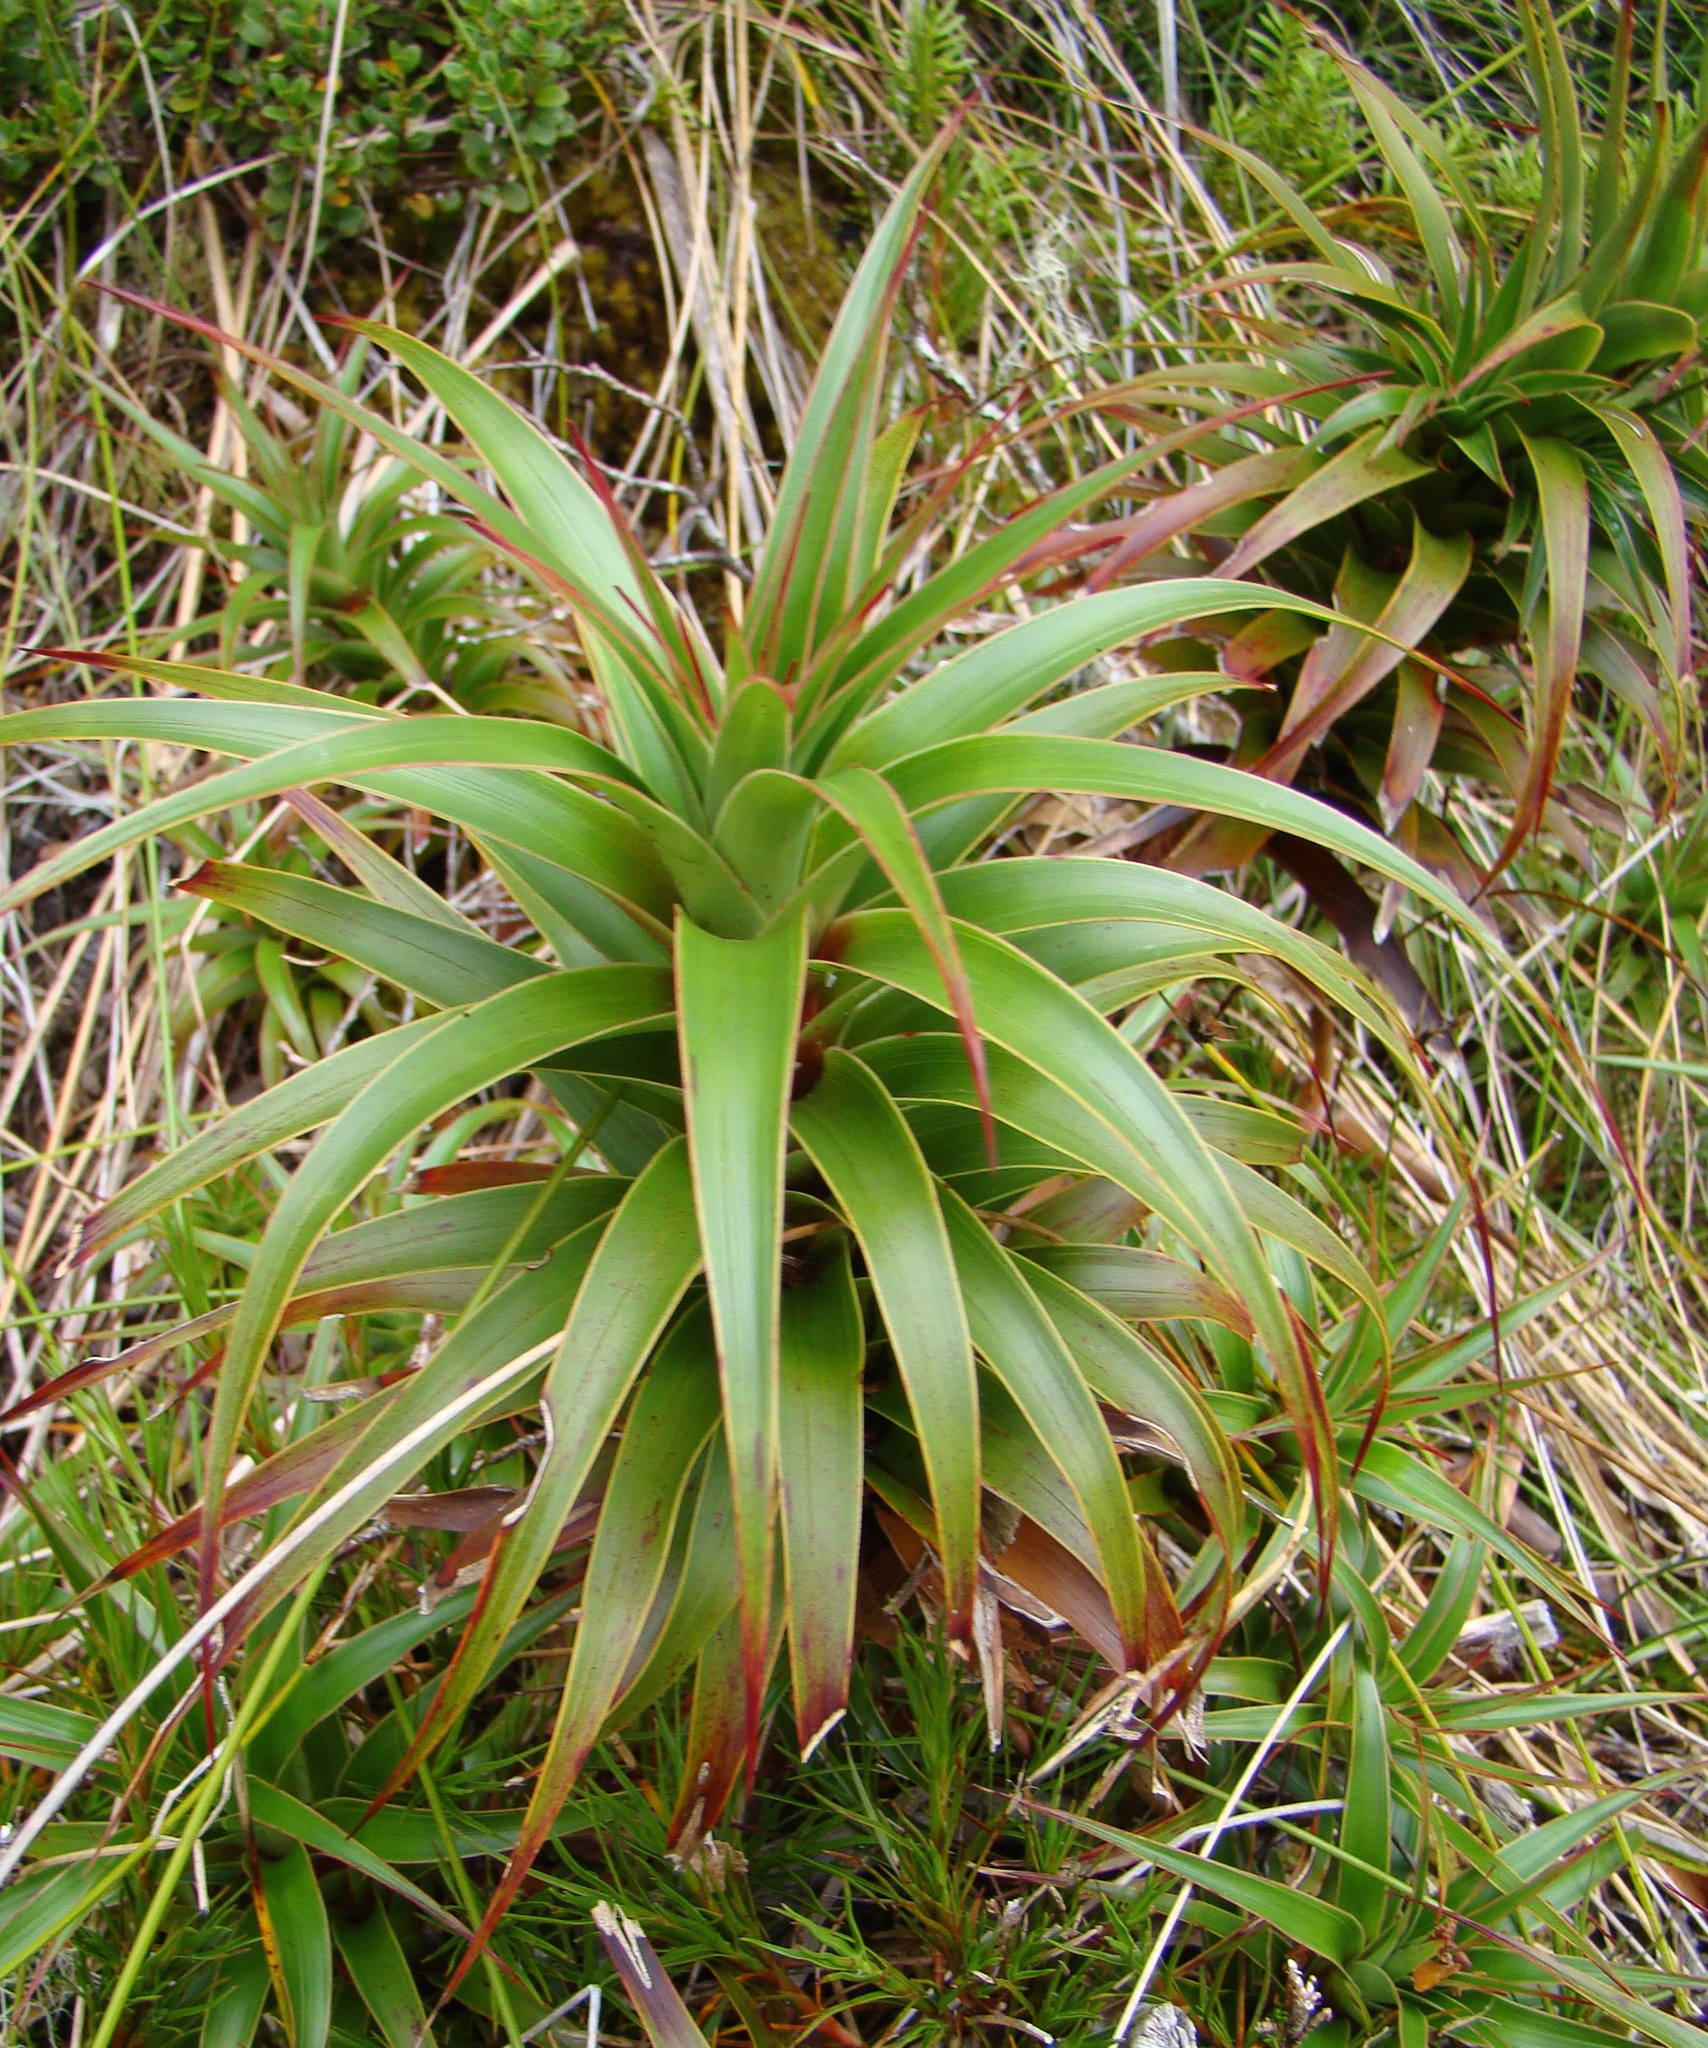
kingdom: Plantae
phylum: Tracheophyta
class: Magnoliopsida
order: Ericales
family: Ericaceae
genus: Dracophyllum
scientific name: Dracophyllum menziesii
